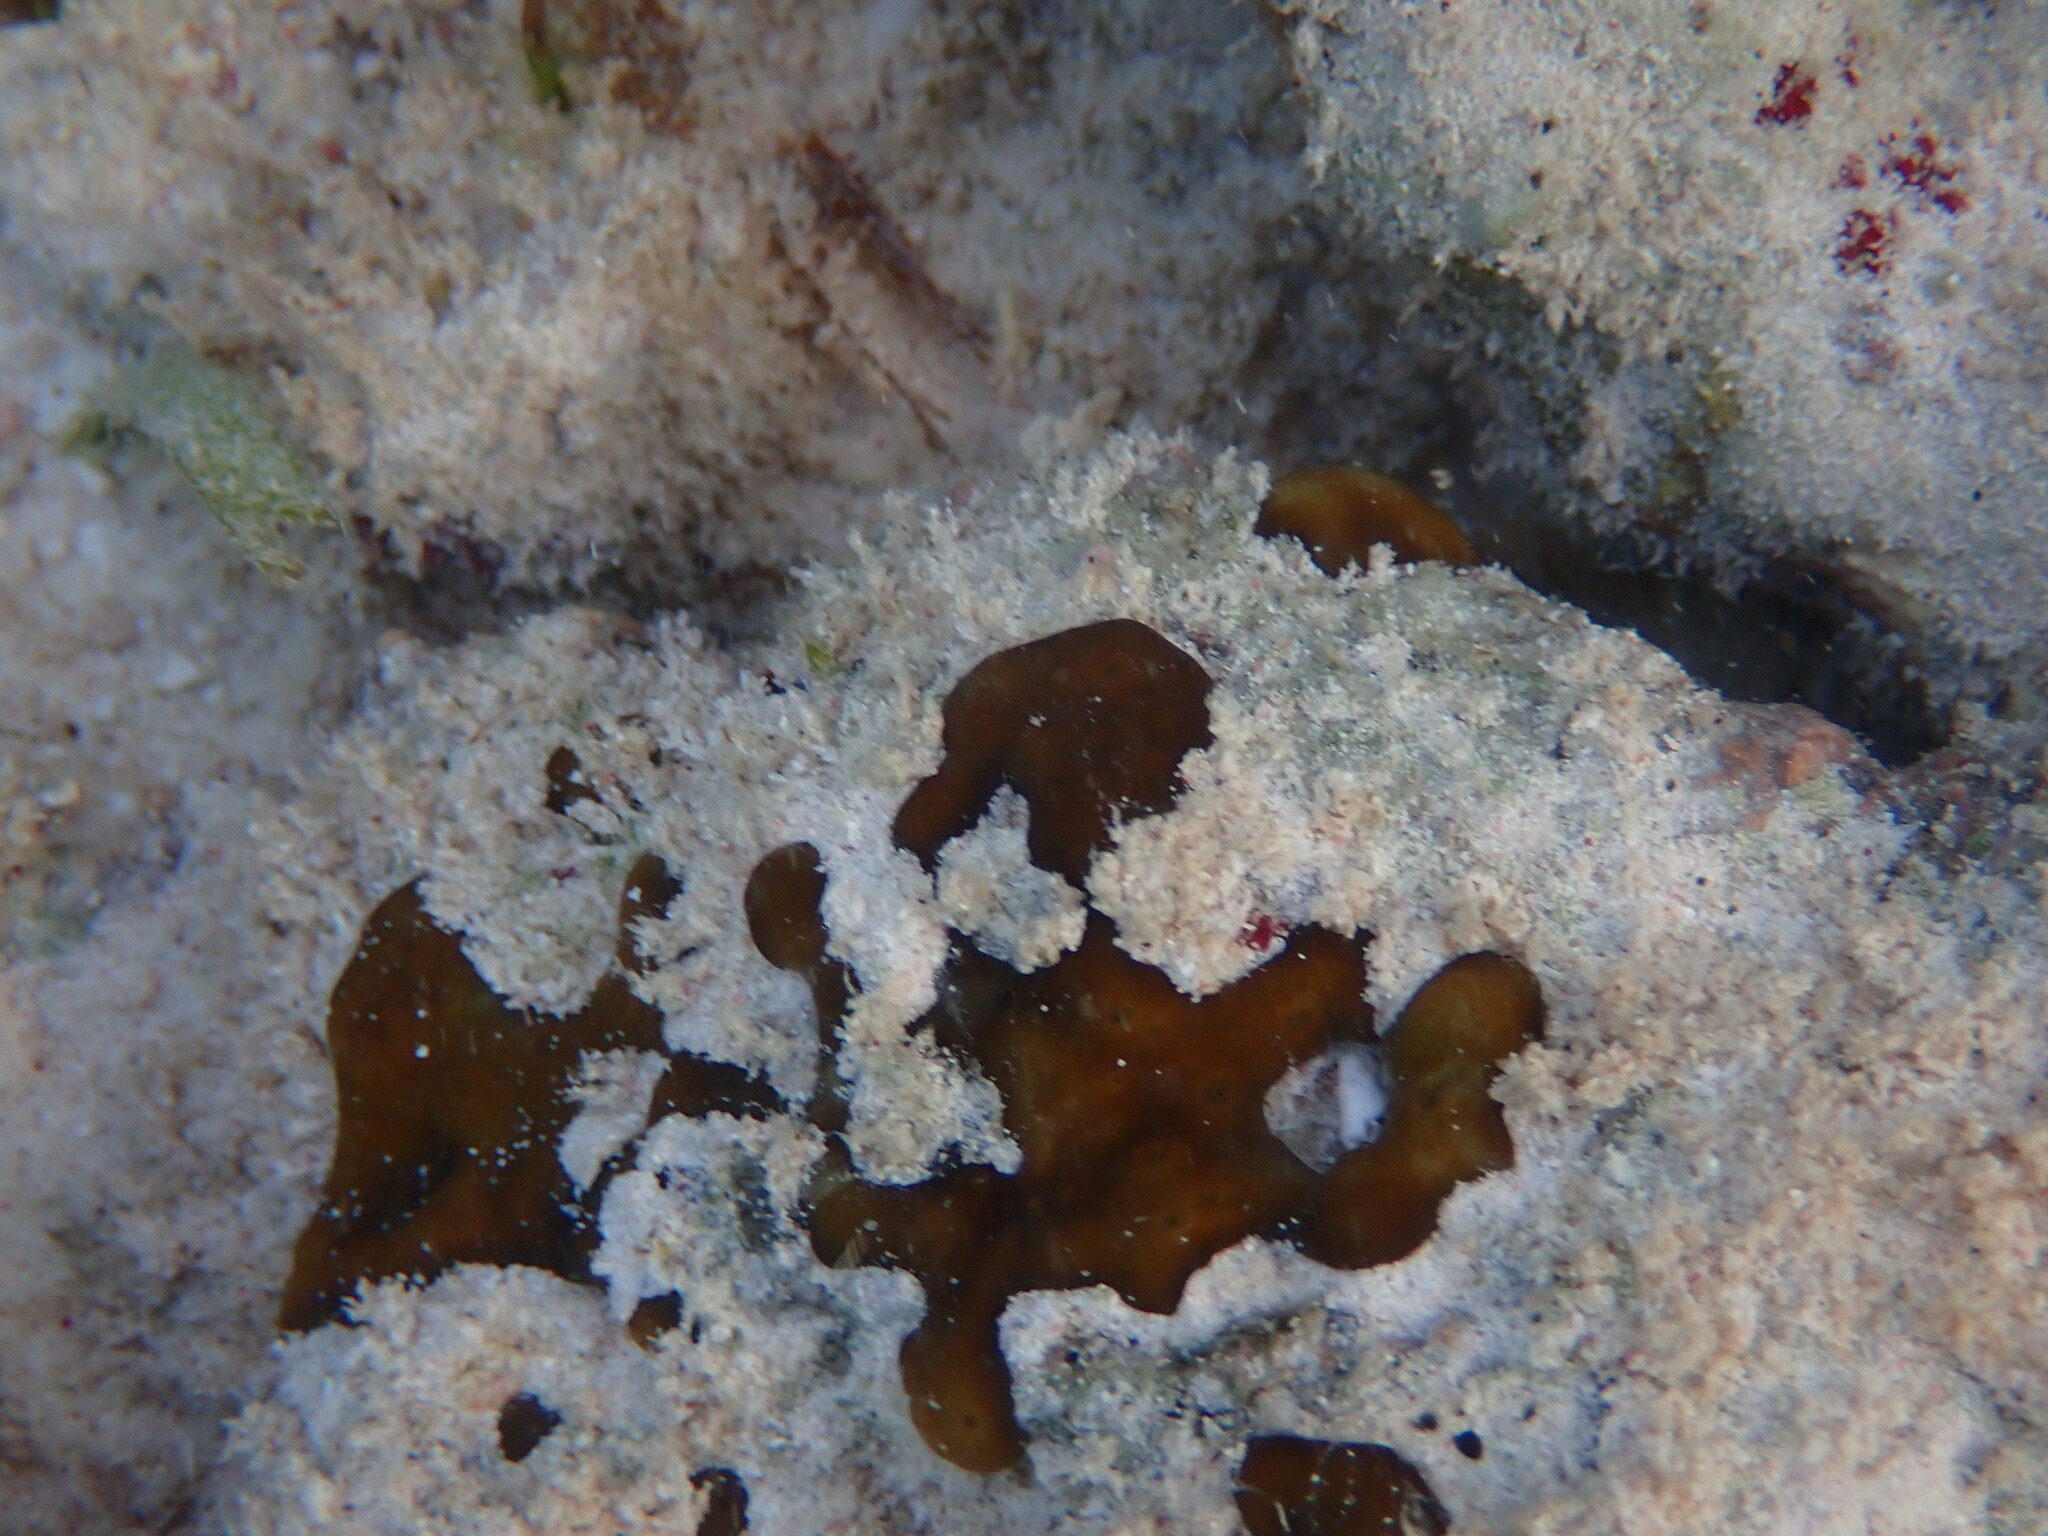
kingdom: Animalia
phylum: Porifera
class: Demospongiae
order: Chondrillida
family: Chondrillidae
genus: Chondrilla
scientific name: Chondrilla nucula
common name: Chicken liver sponge
